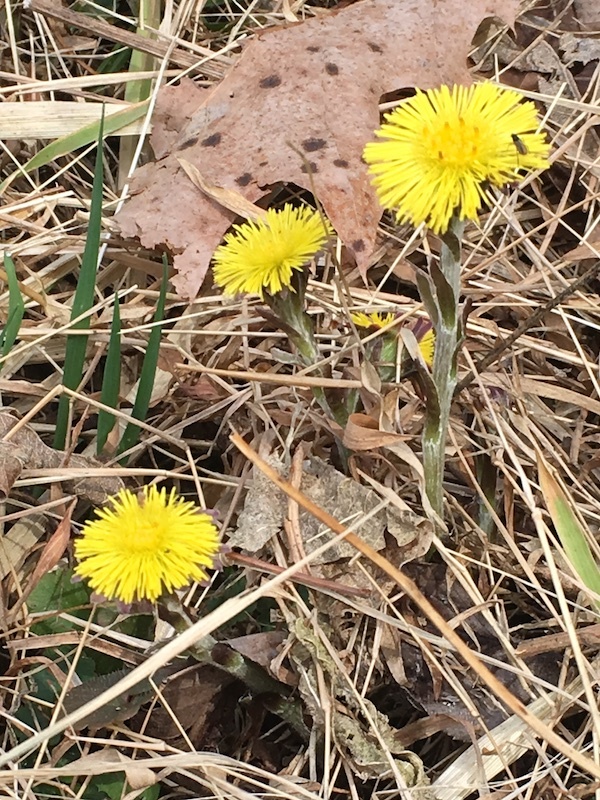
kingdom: Plantae
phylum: Tracheophyta
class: Magnoliopsida
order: Asterales
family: Asteraceae
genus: Tussilago
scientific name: Tussilago farfara
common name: Coltsfoot
